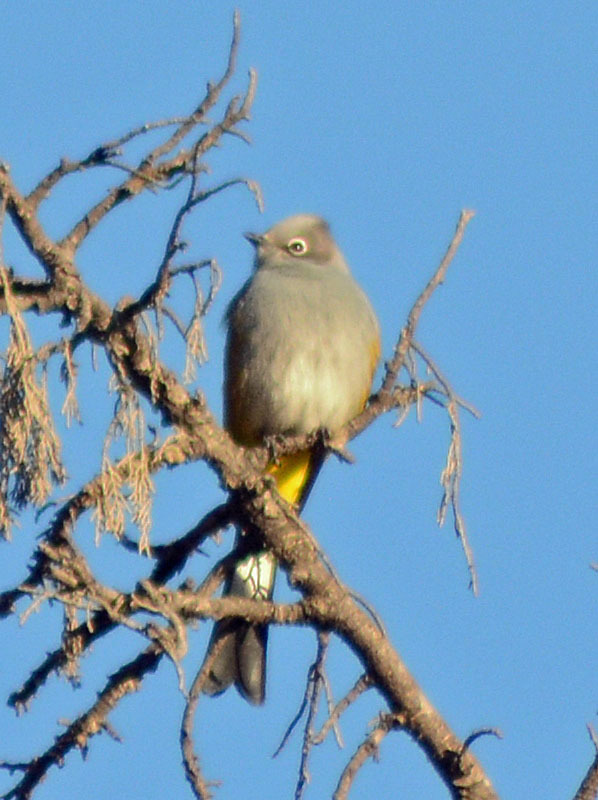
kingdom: Animalia
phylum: Chordata
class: Aves
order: Passeriformes
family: Ptilogonatidae
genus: Ptilogonys
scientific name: Ptilogonys cinereus
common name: Gray silky-flycatcher
